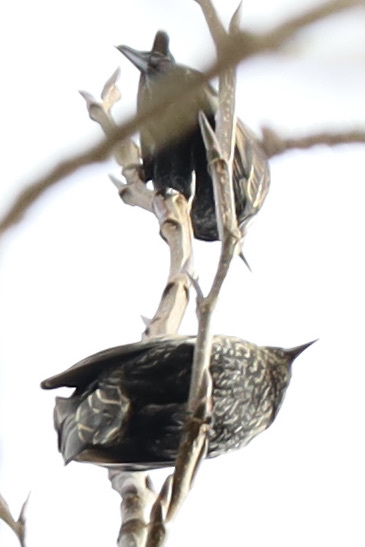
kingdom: Animalia
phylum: Chordata
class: Aves
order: Passeriformes
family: Sturnidae
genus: Sturnus
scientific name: Sturnus vulgaris
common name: Common starling
